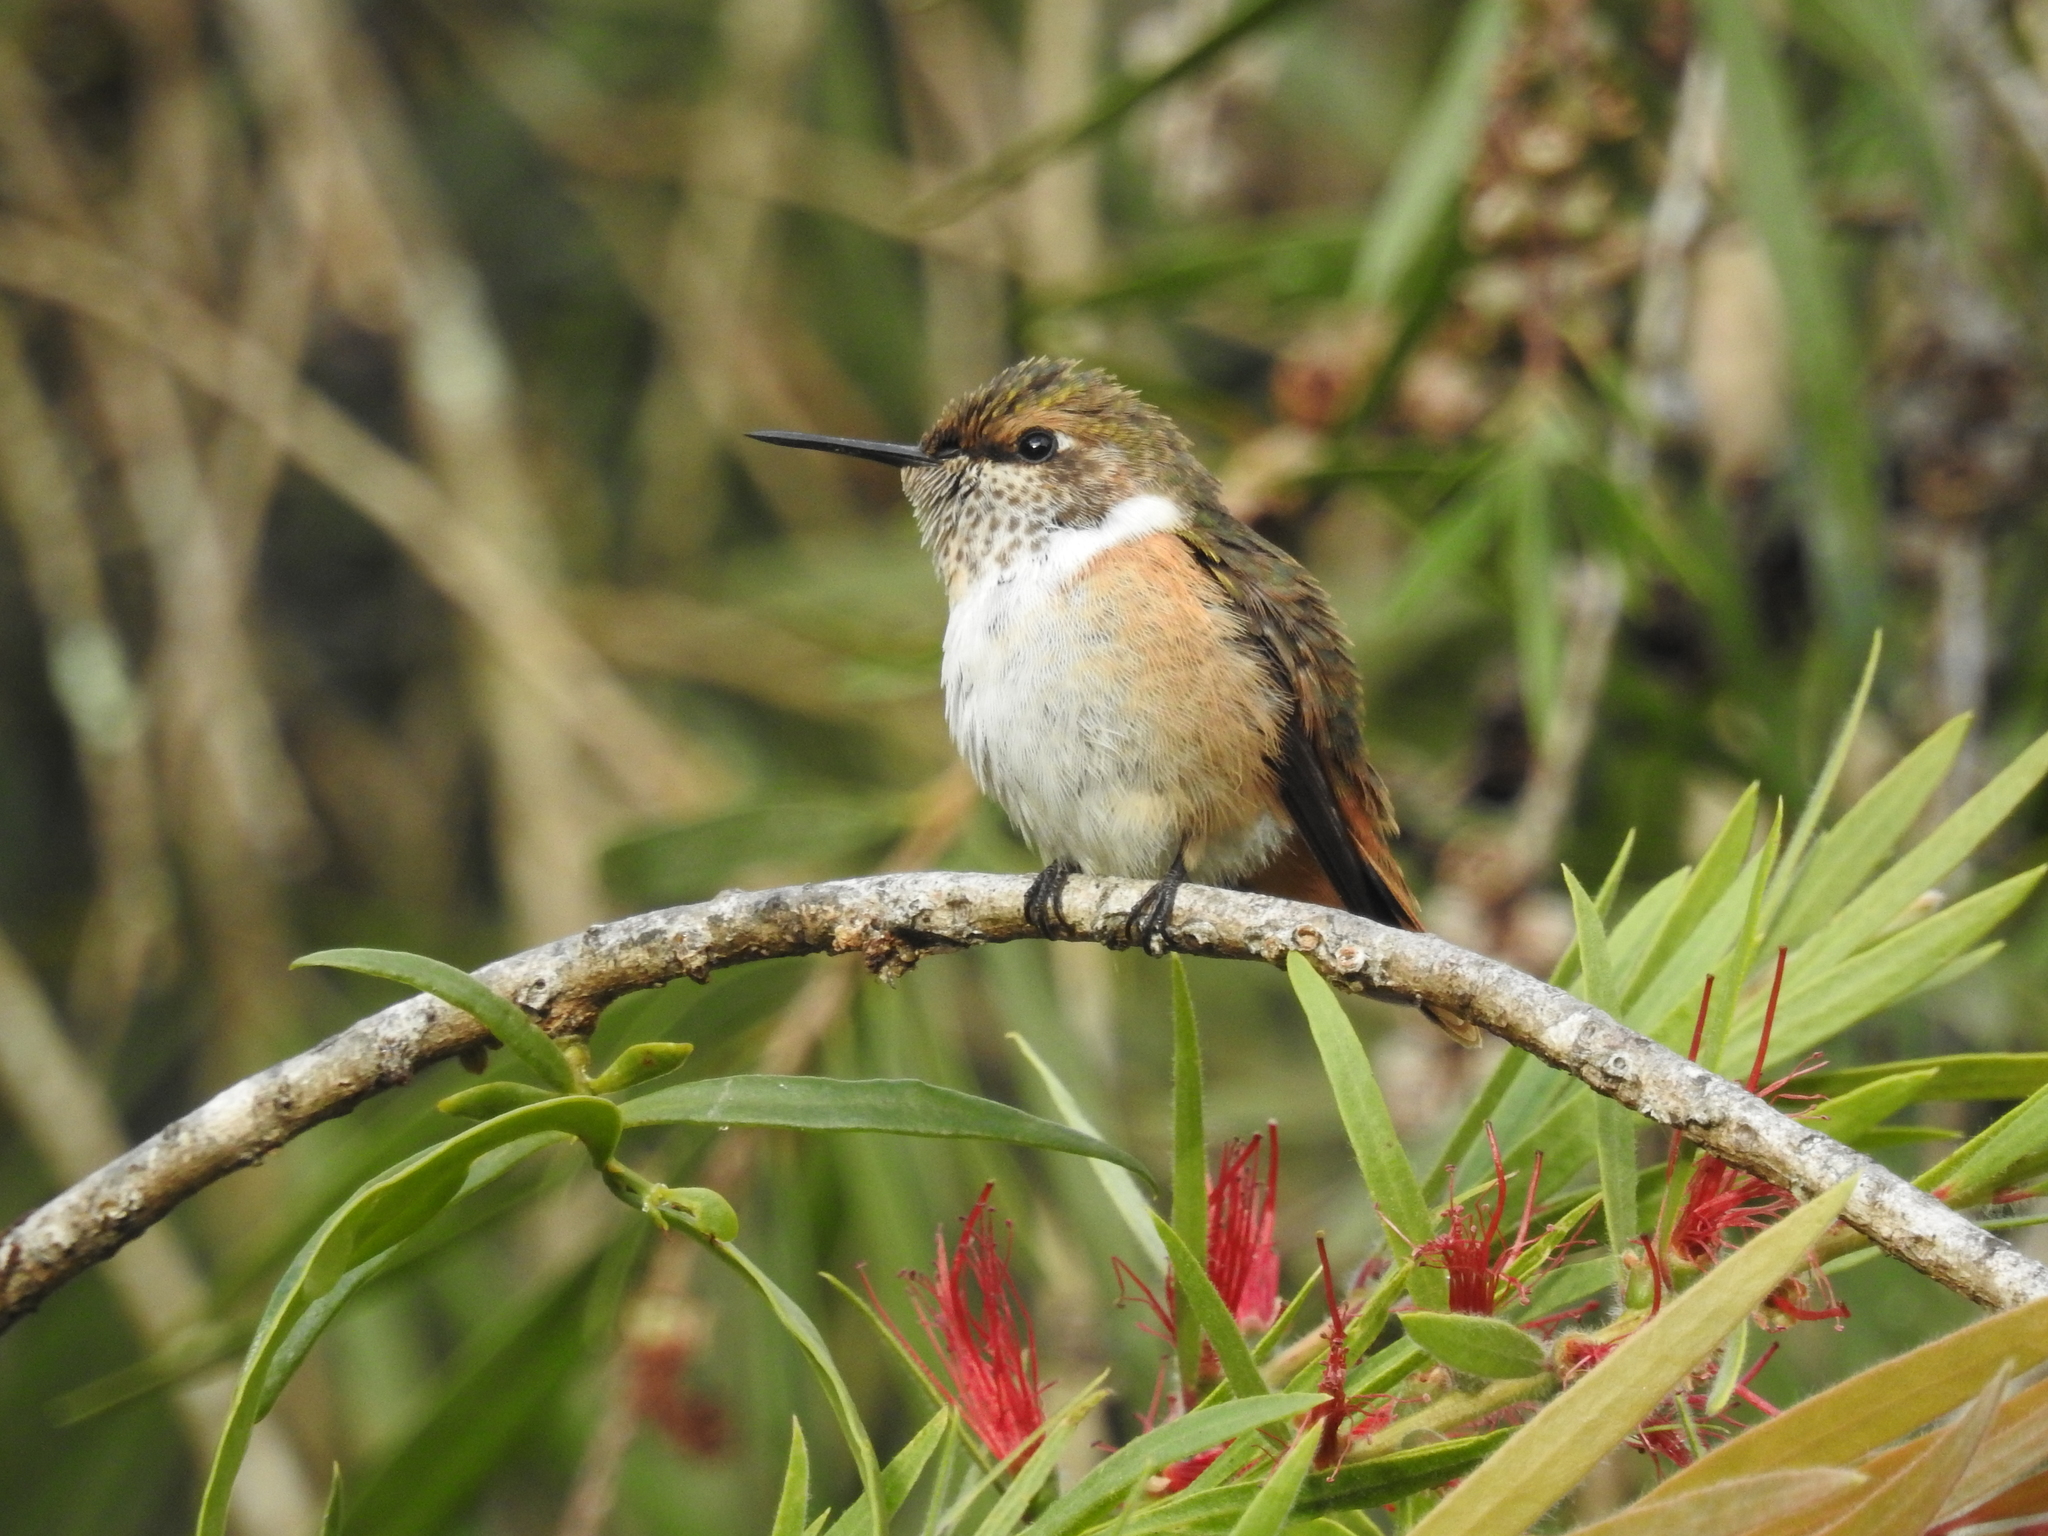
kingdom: Animalia
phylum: Chordata
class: Aves
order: Apodiformes
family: Trochilidae
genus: Selasphorus
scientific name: Selasphorus scintilla
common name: Scintillant hummingbird
